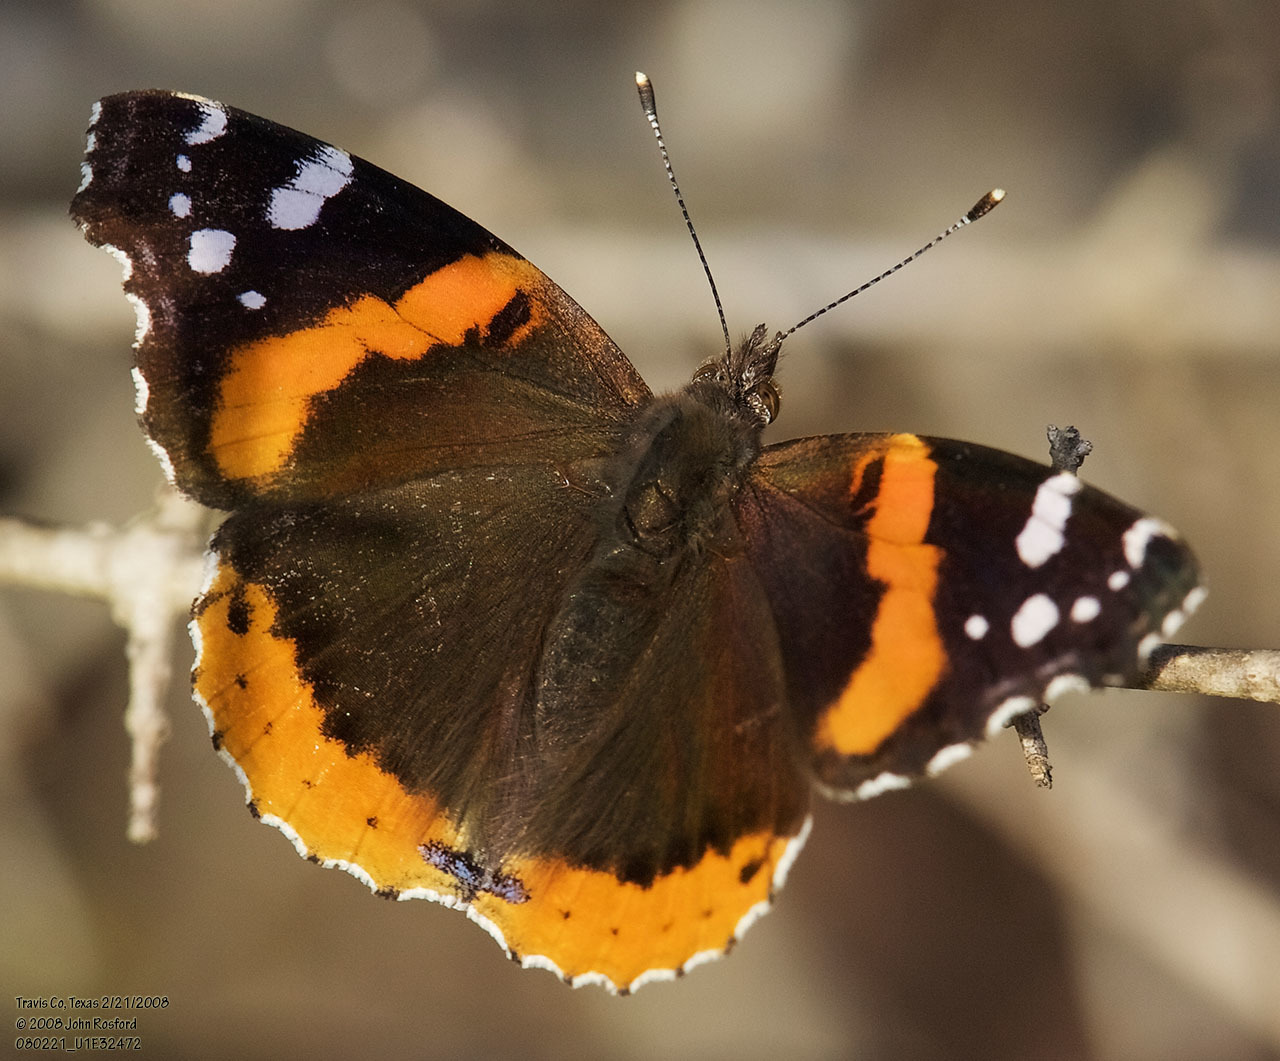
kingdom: Animalia
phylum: Arthropoda
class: Insecta
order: Lepidoptera
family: Nymphalidae
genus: Vanessa
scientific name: Vanessa atalanta
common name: Red admiral
